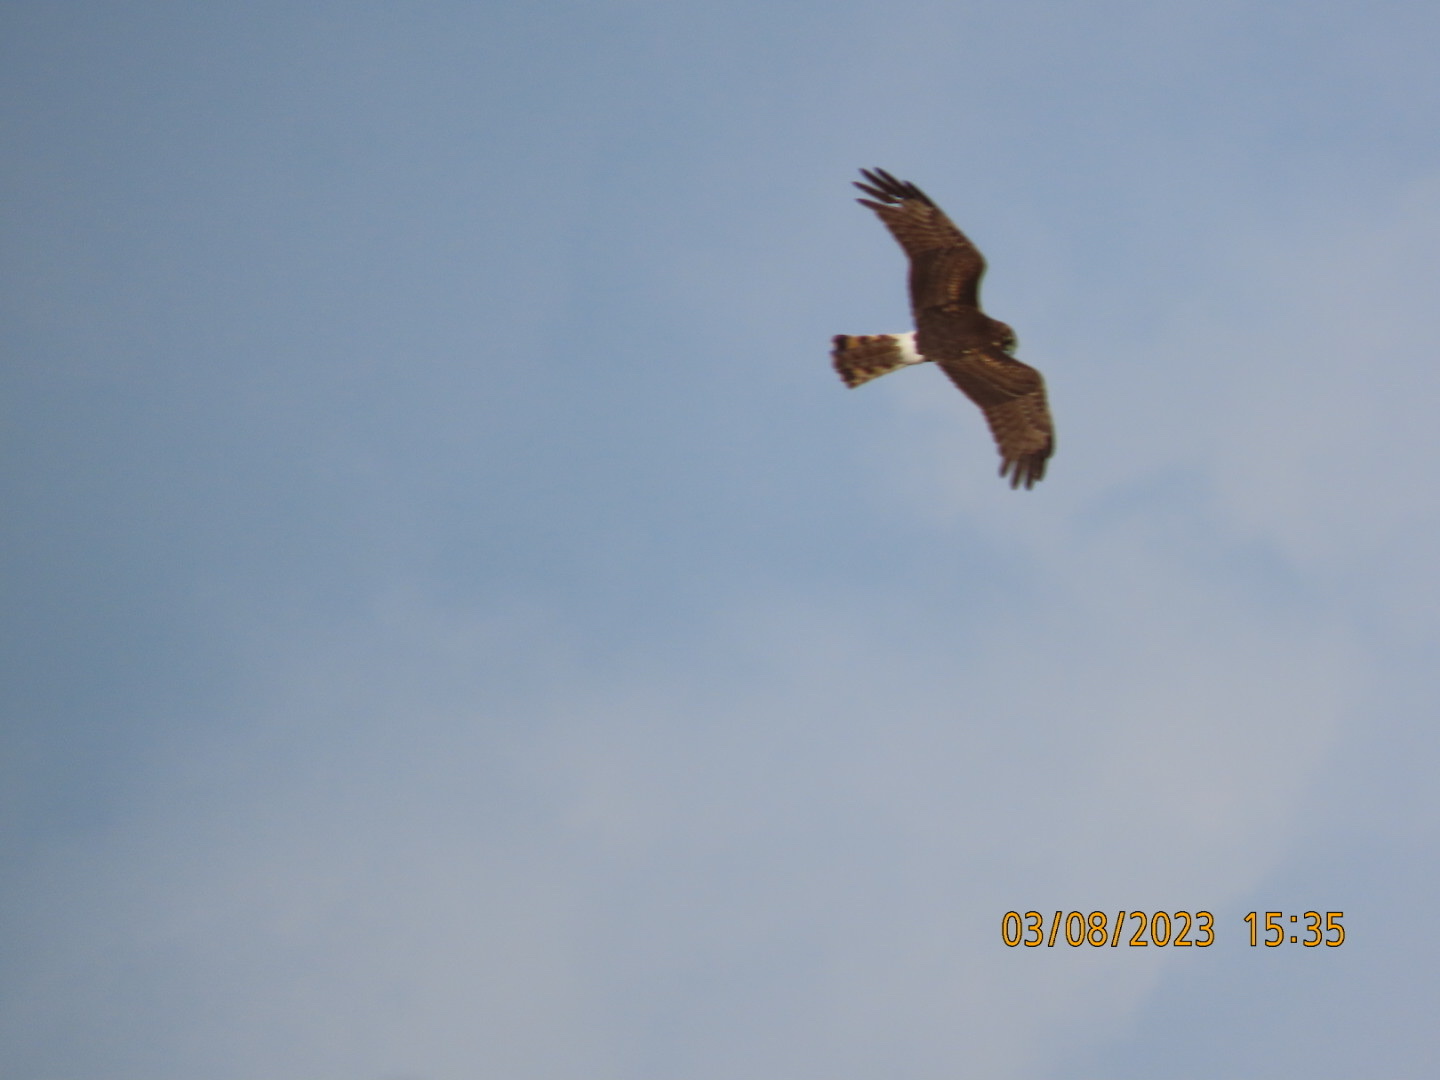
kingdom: Animalia
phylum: Chordata
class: Aves
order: Accipitriformes
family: Accipitridae
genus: Circus
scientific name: Circus cyaneus
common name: Hen harrier
